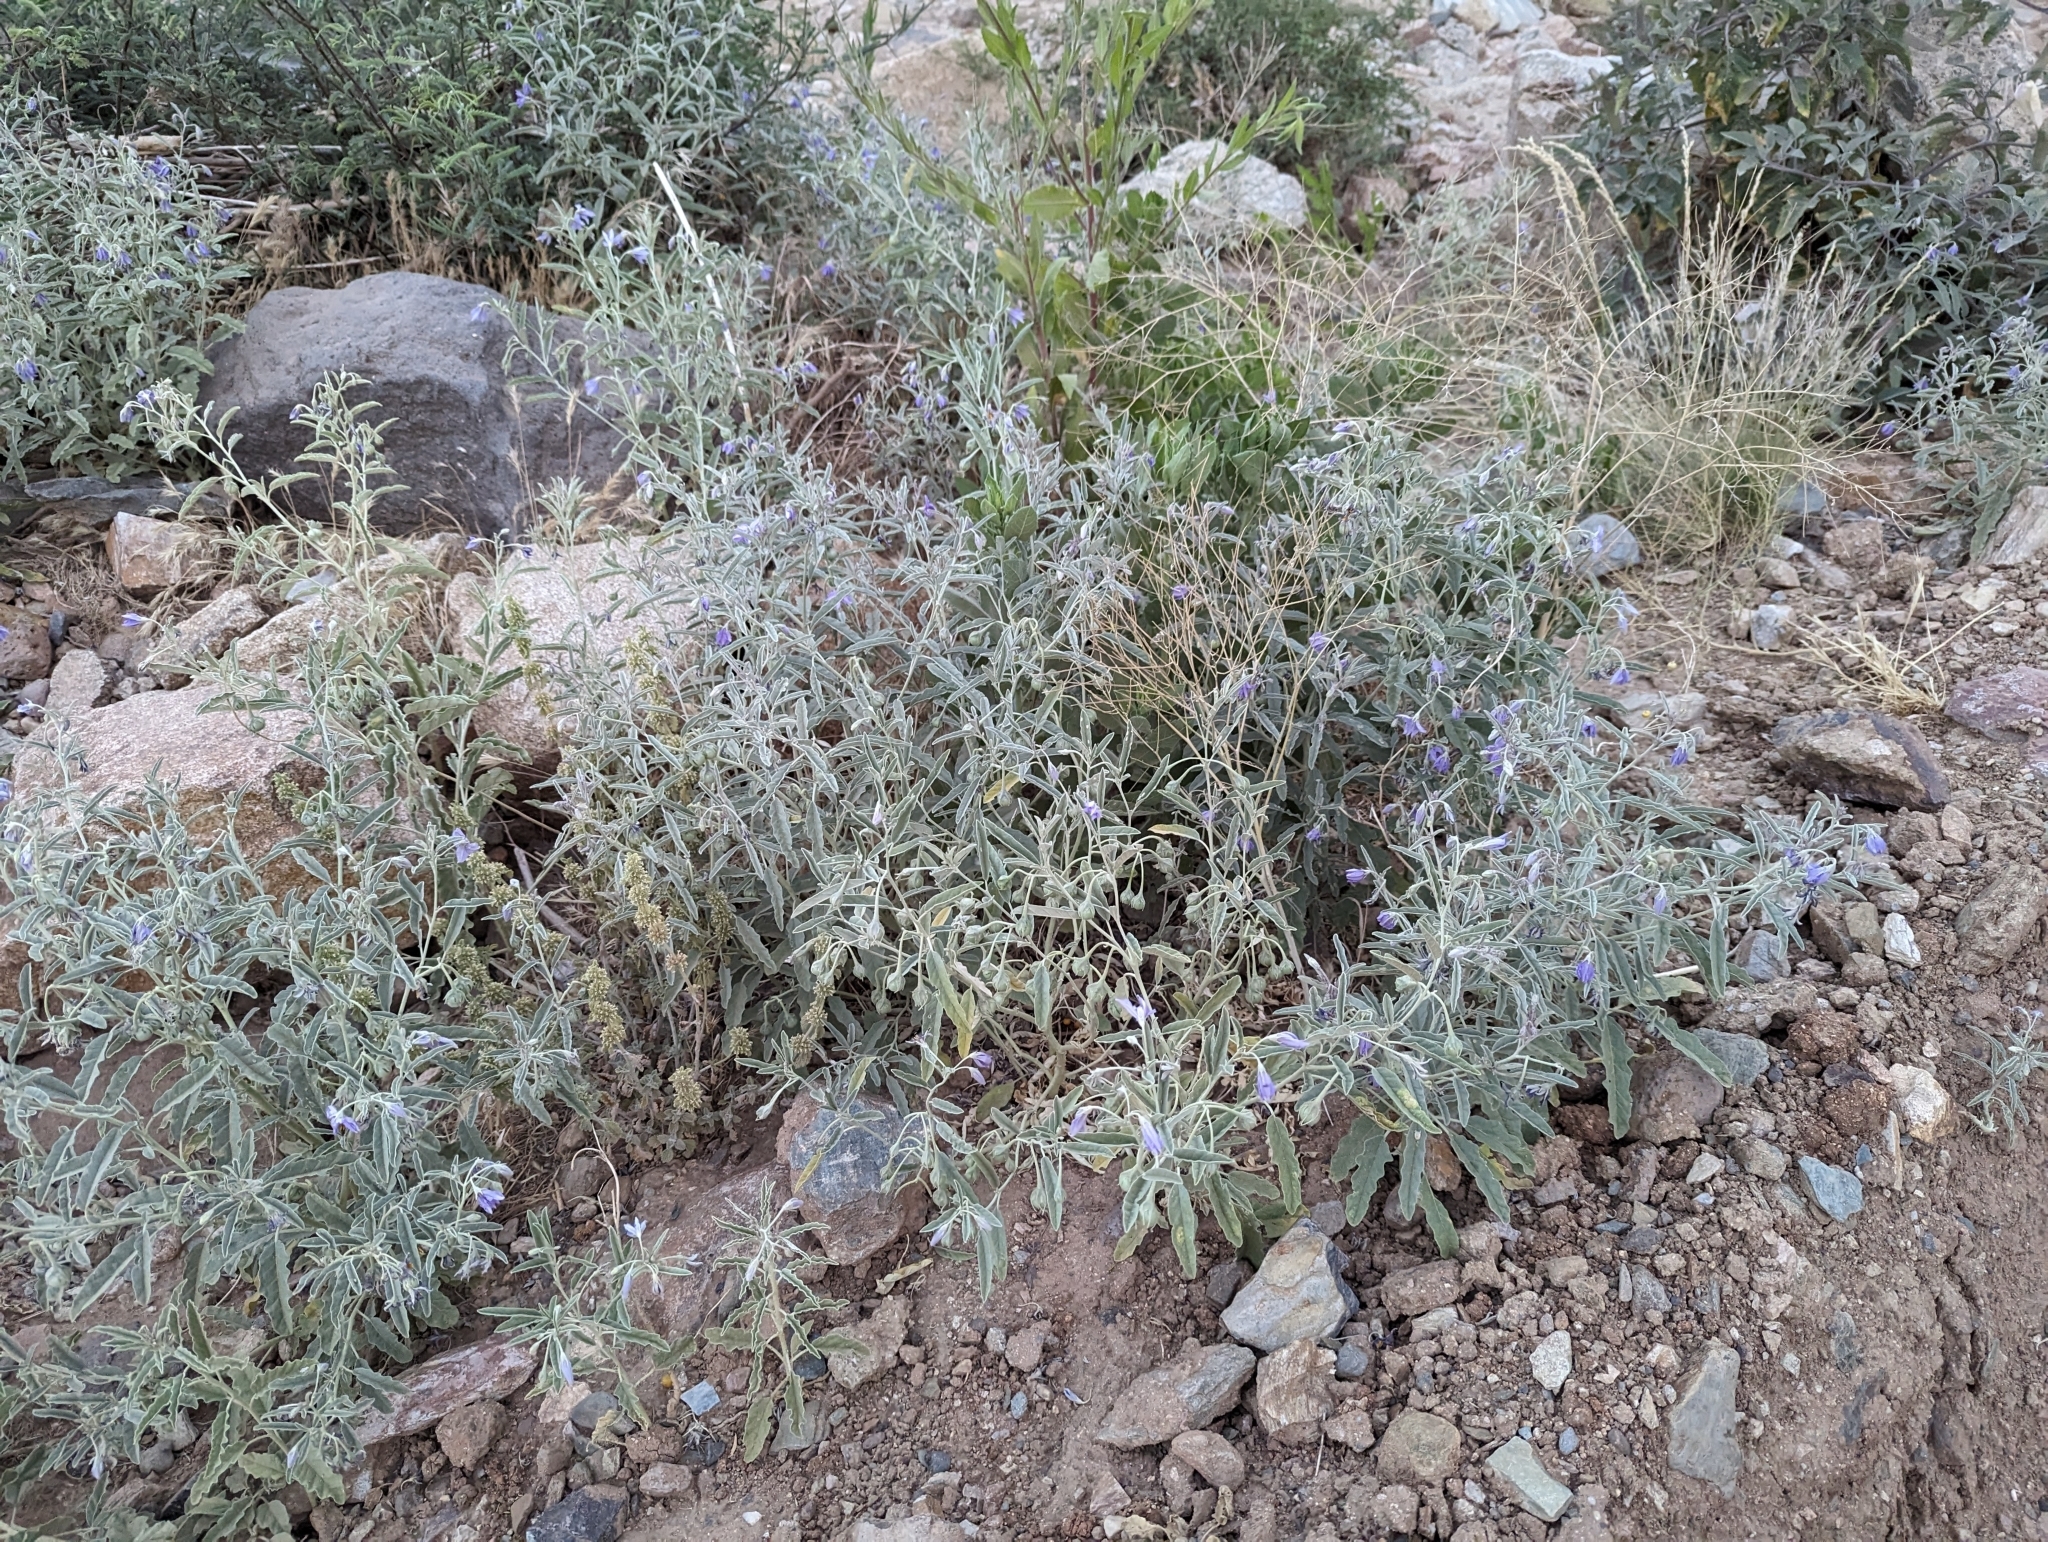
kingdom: Plantae
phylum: Tracheophyta
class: Magnoliopsida
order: Solanales
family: Solanaceae
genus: Solanum
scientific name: Solanum elaeagnifolium
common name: Silverleaf nightshade
